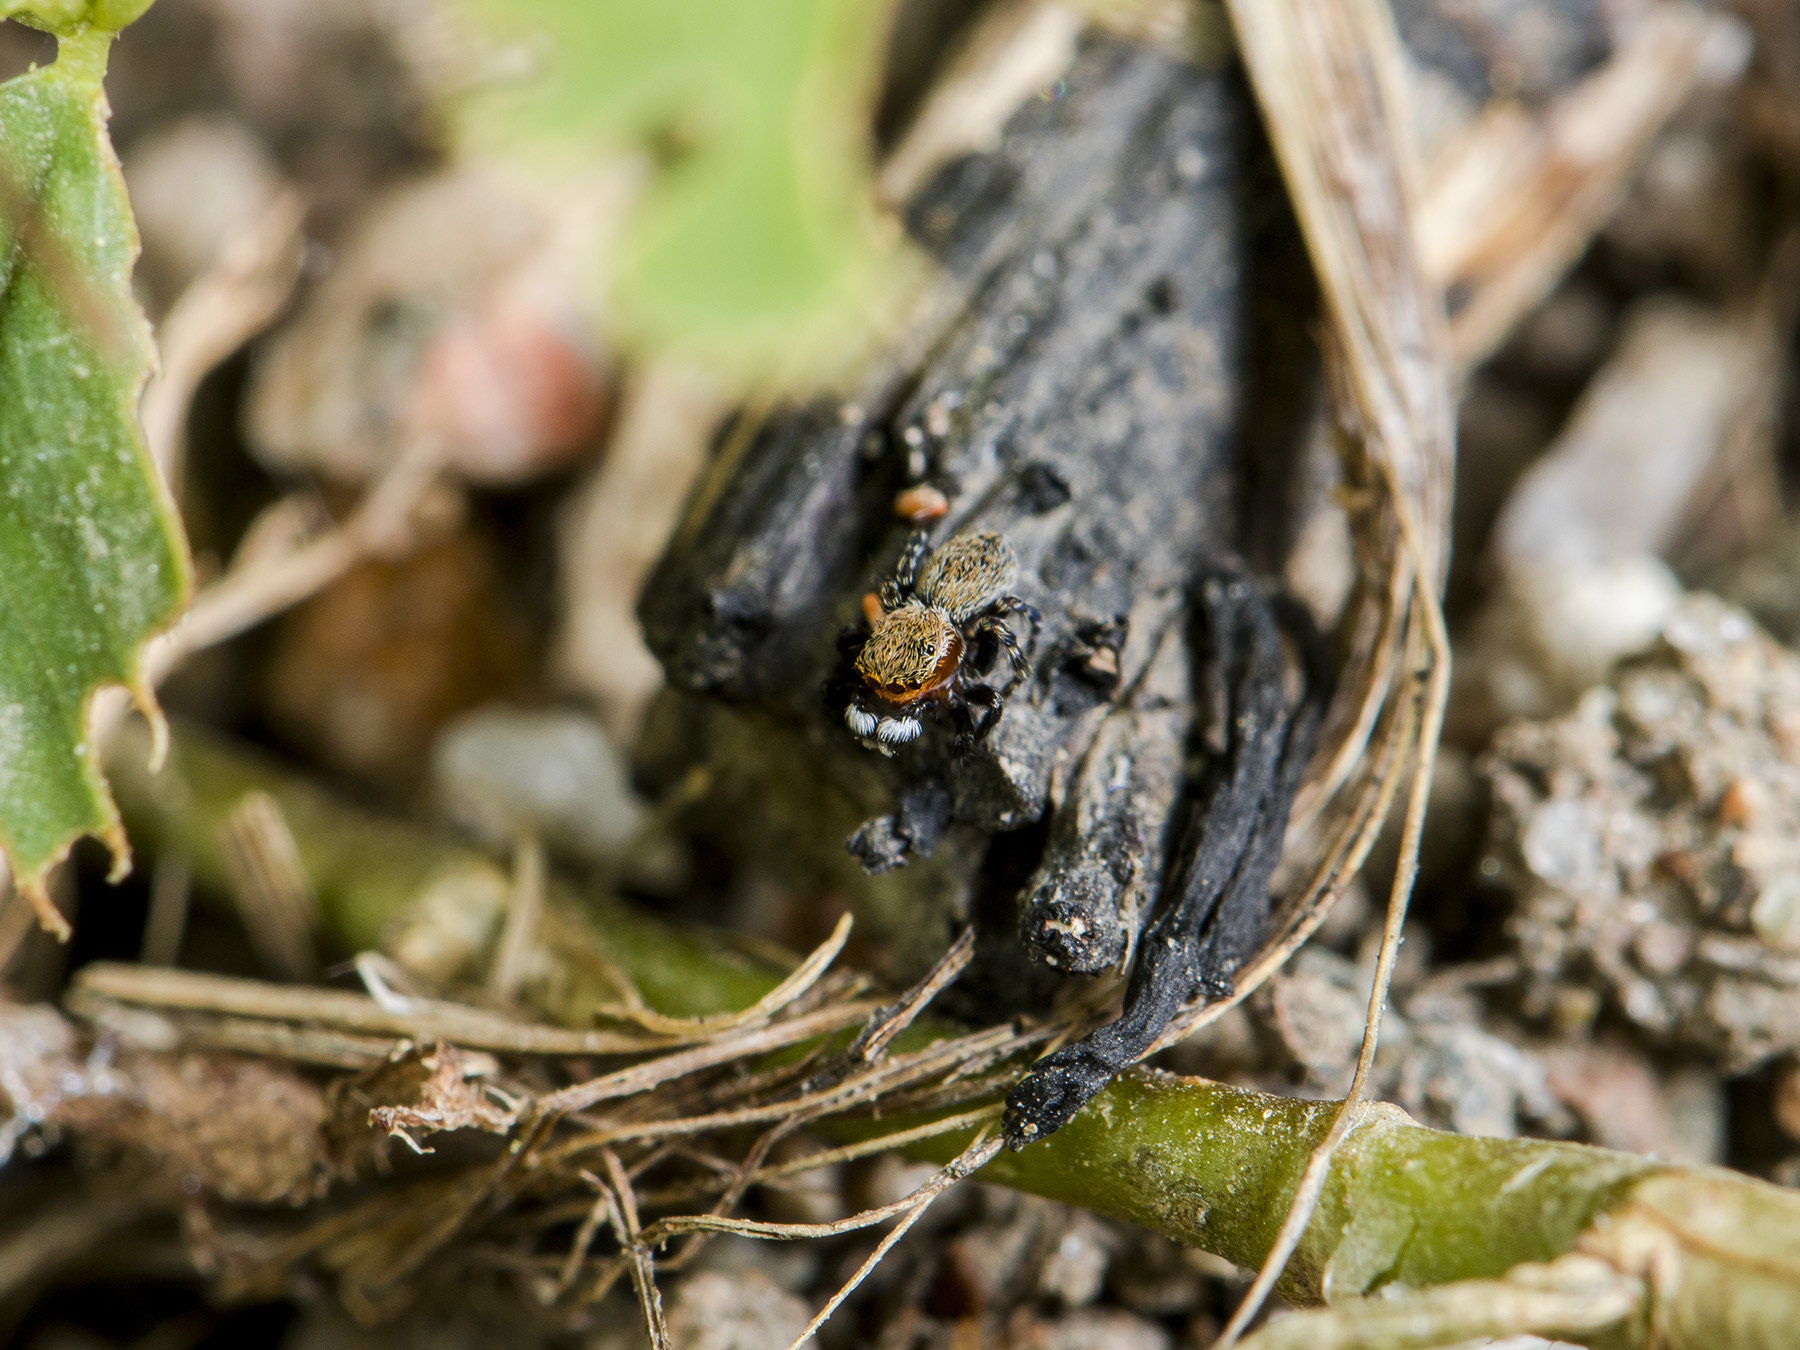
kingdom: Animalia
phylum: Arthropoda
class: Arachnida
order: Araneae
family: Salticidae
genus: Talavera
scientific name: Talavera petrensis
